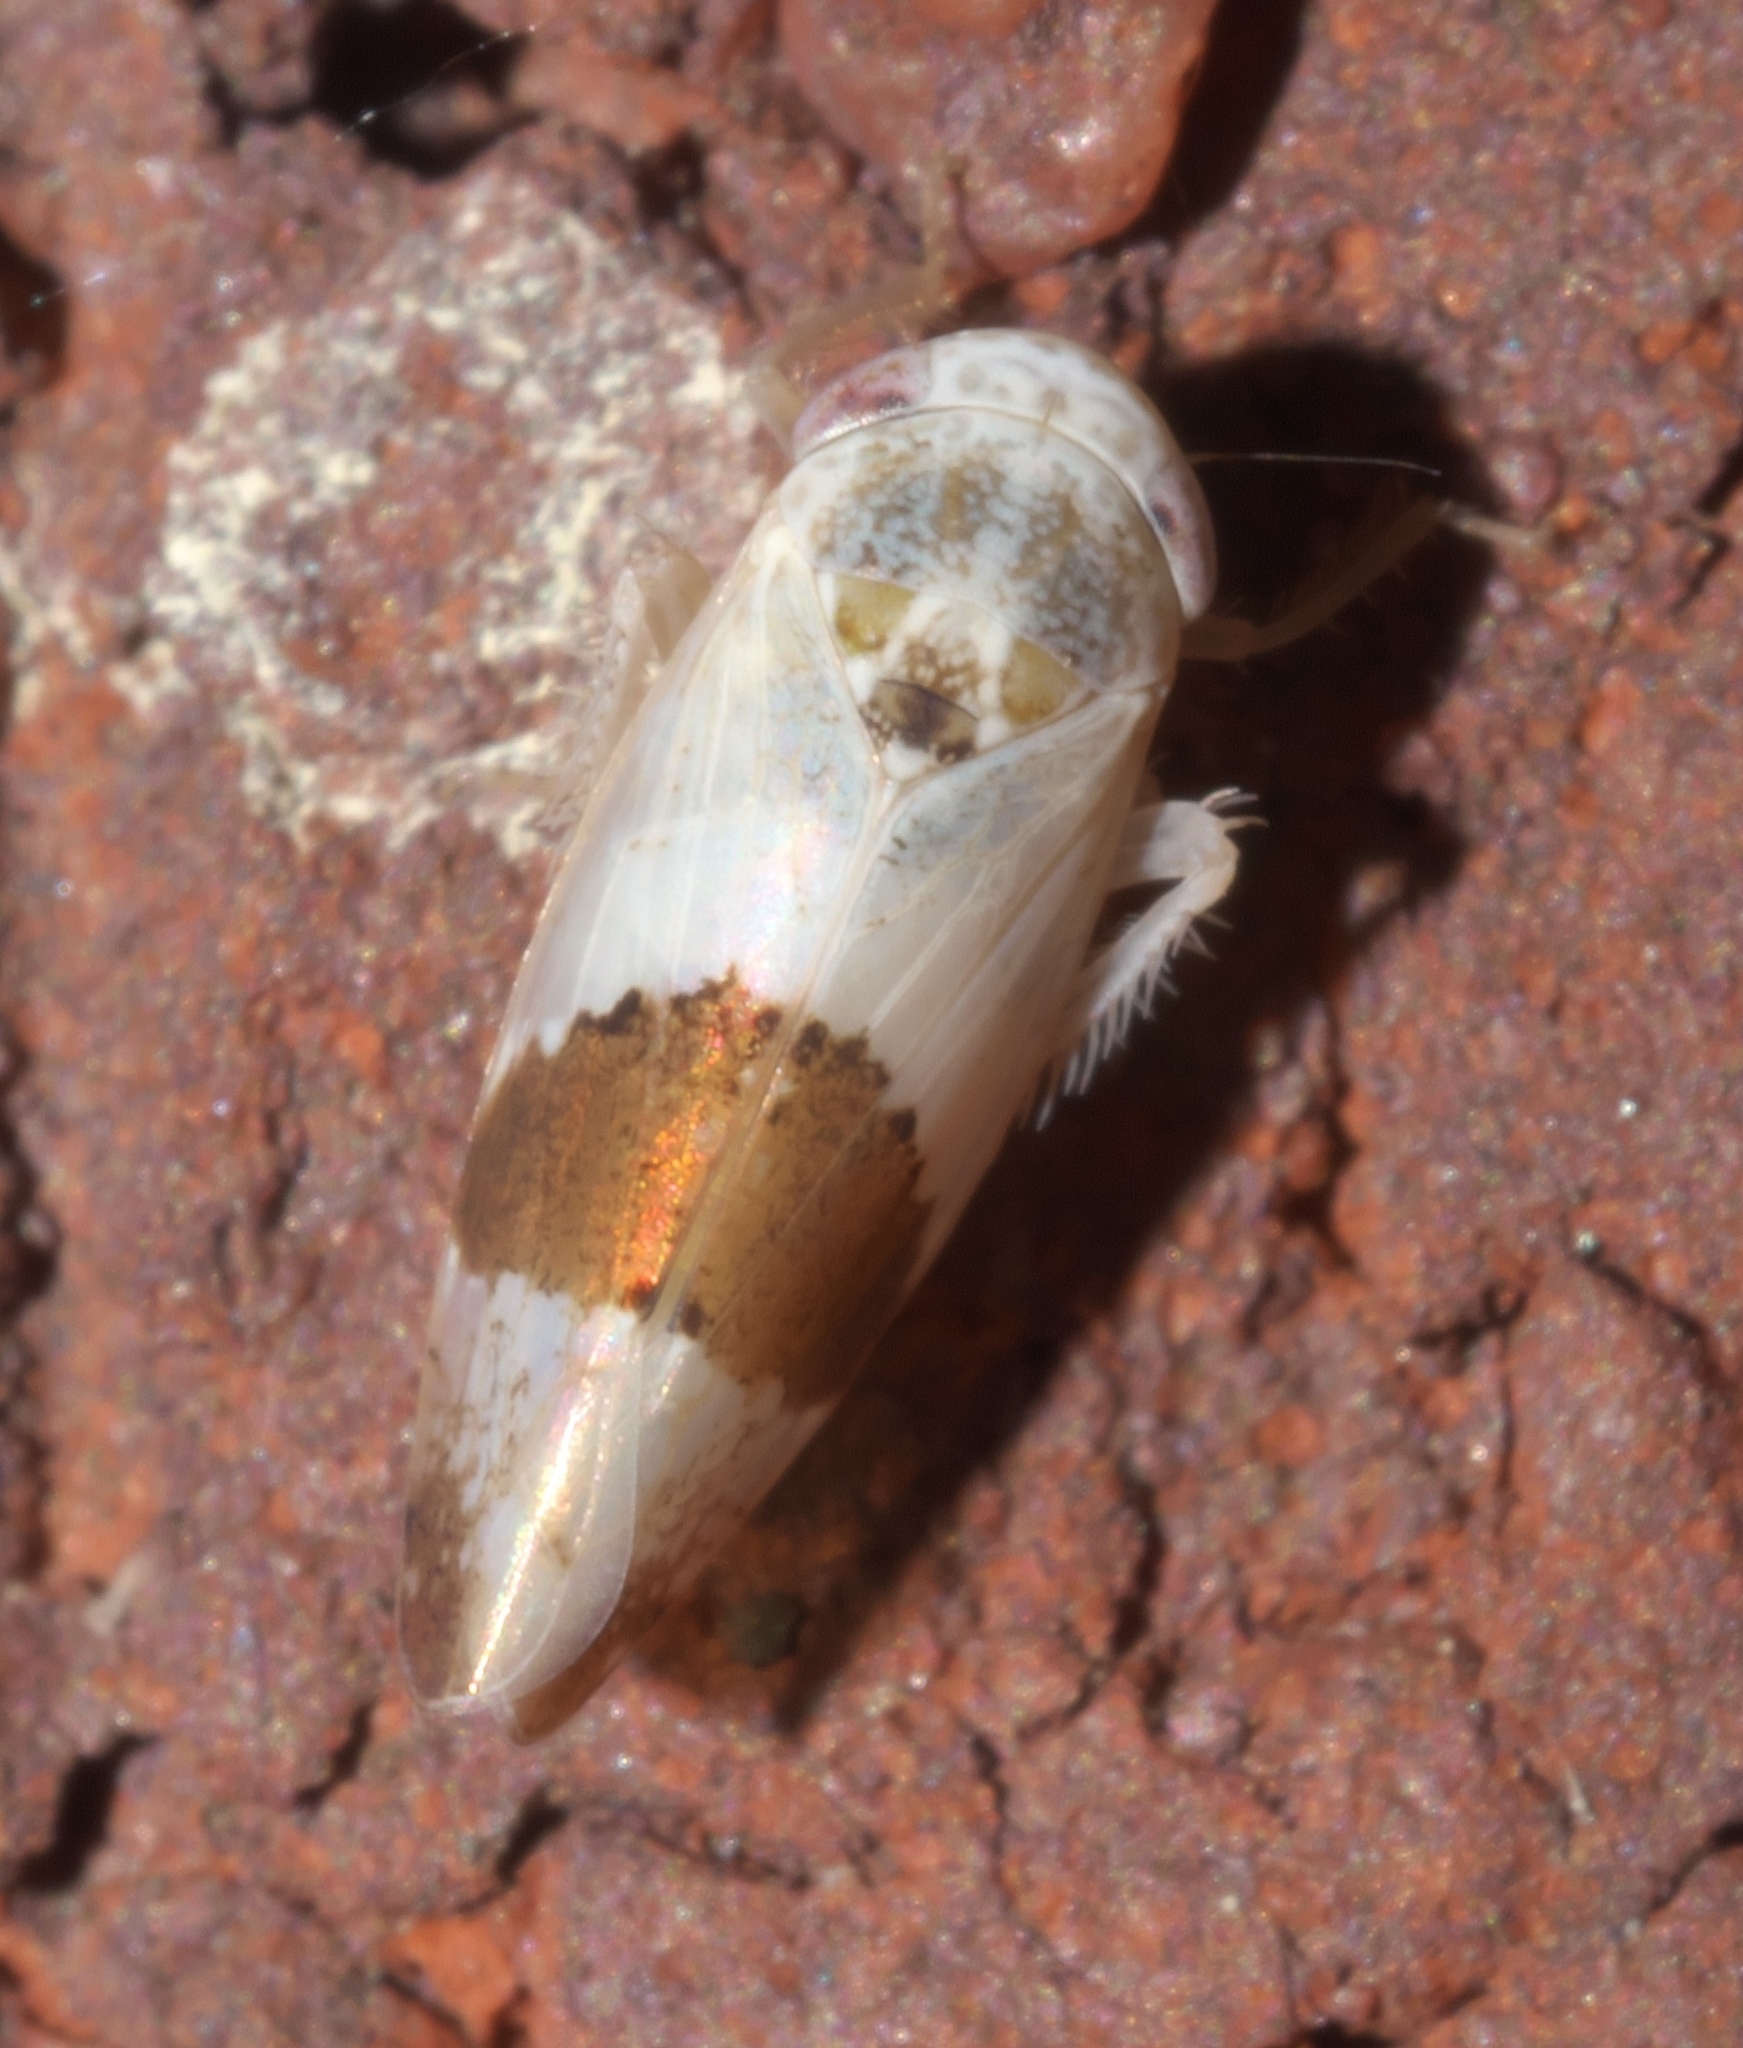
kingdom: Animalia
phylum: Arthropoda
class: Insecta
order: Hemiptera
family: Cicadellidae
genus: Norvellina
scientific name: Norvellina seminuda
